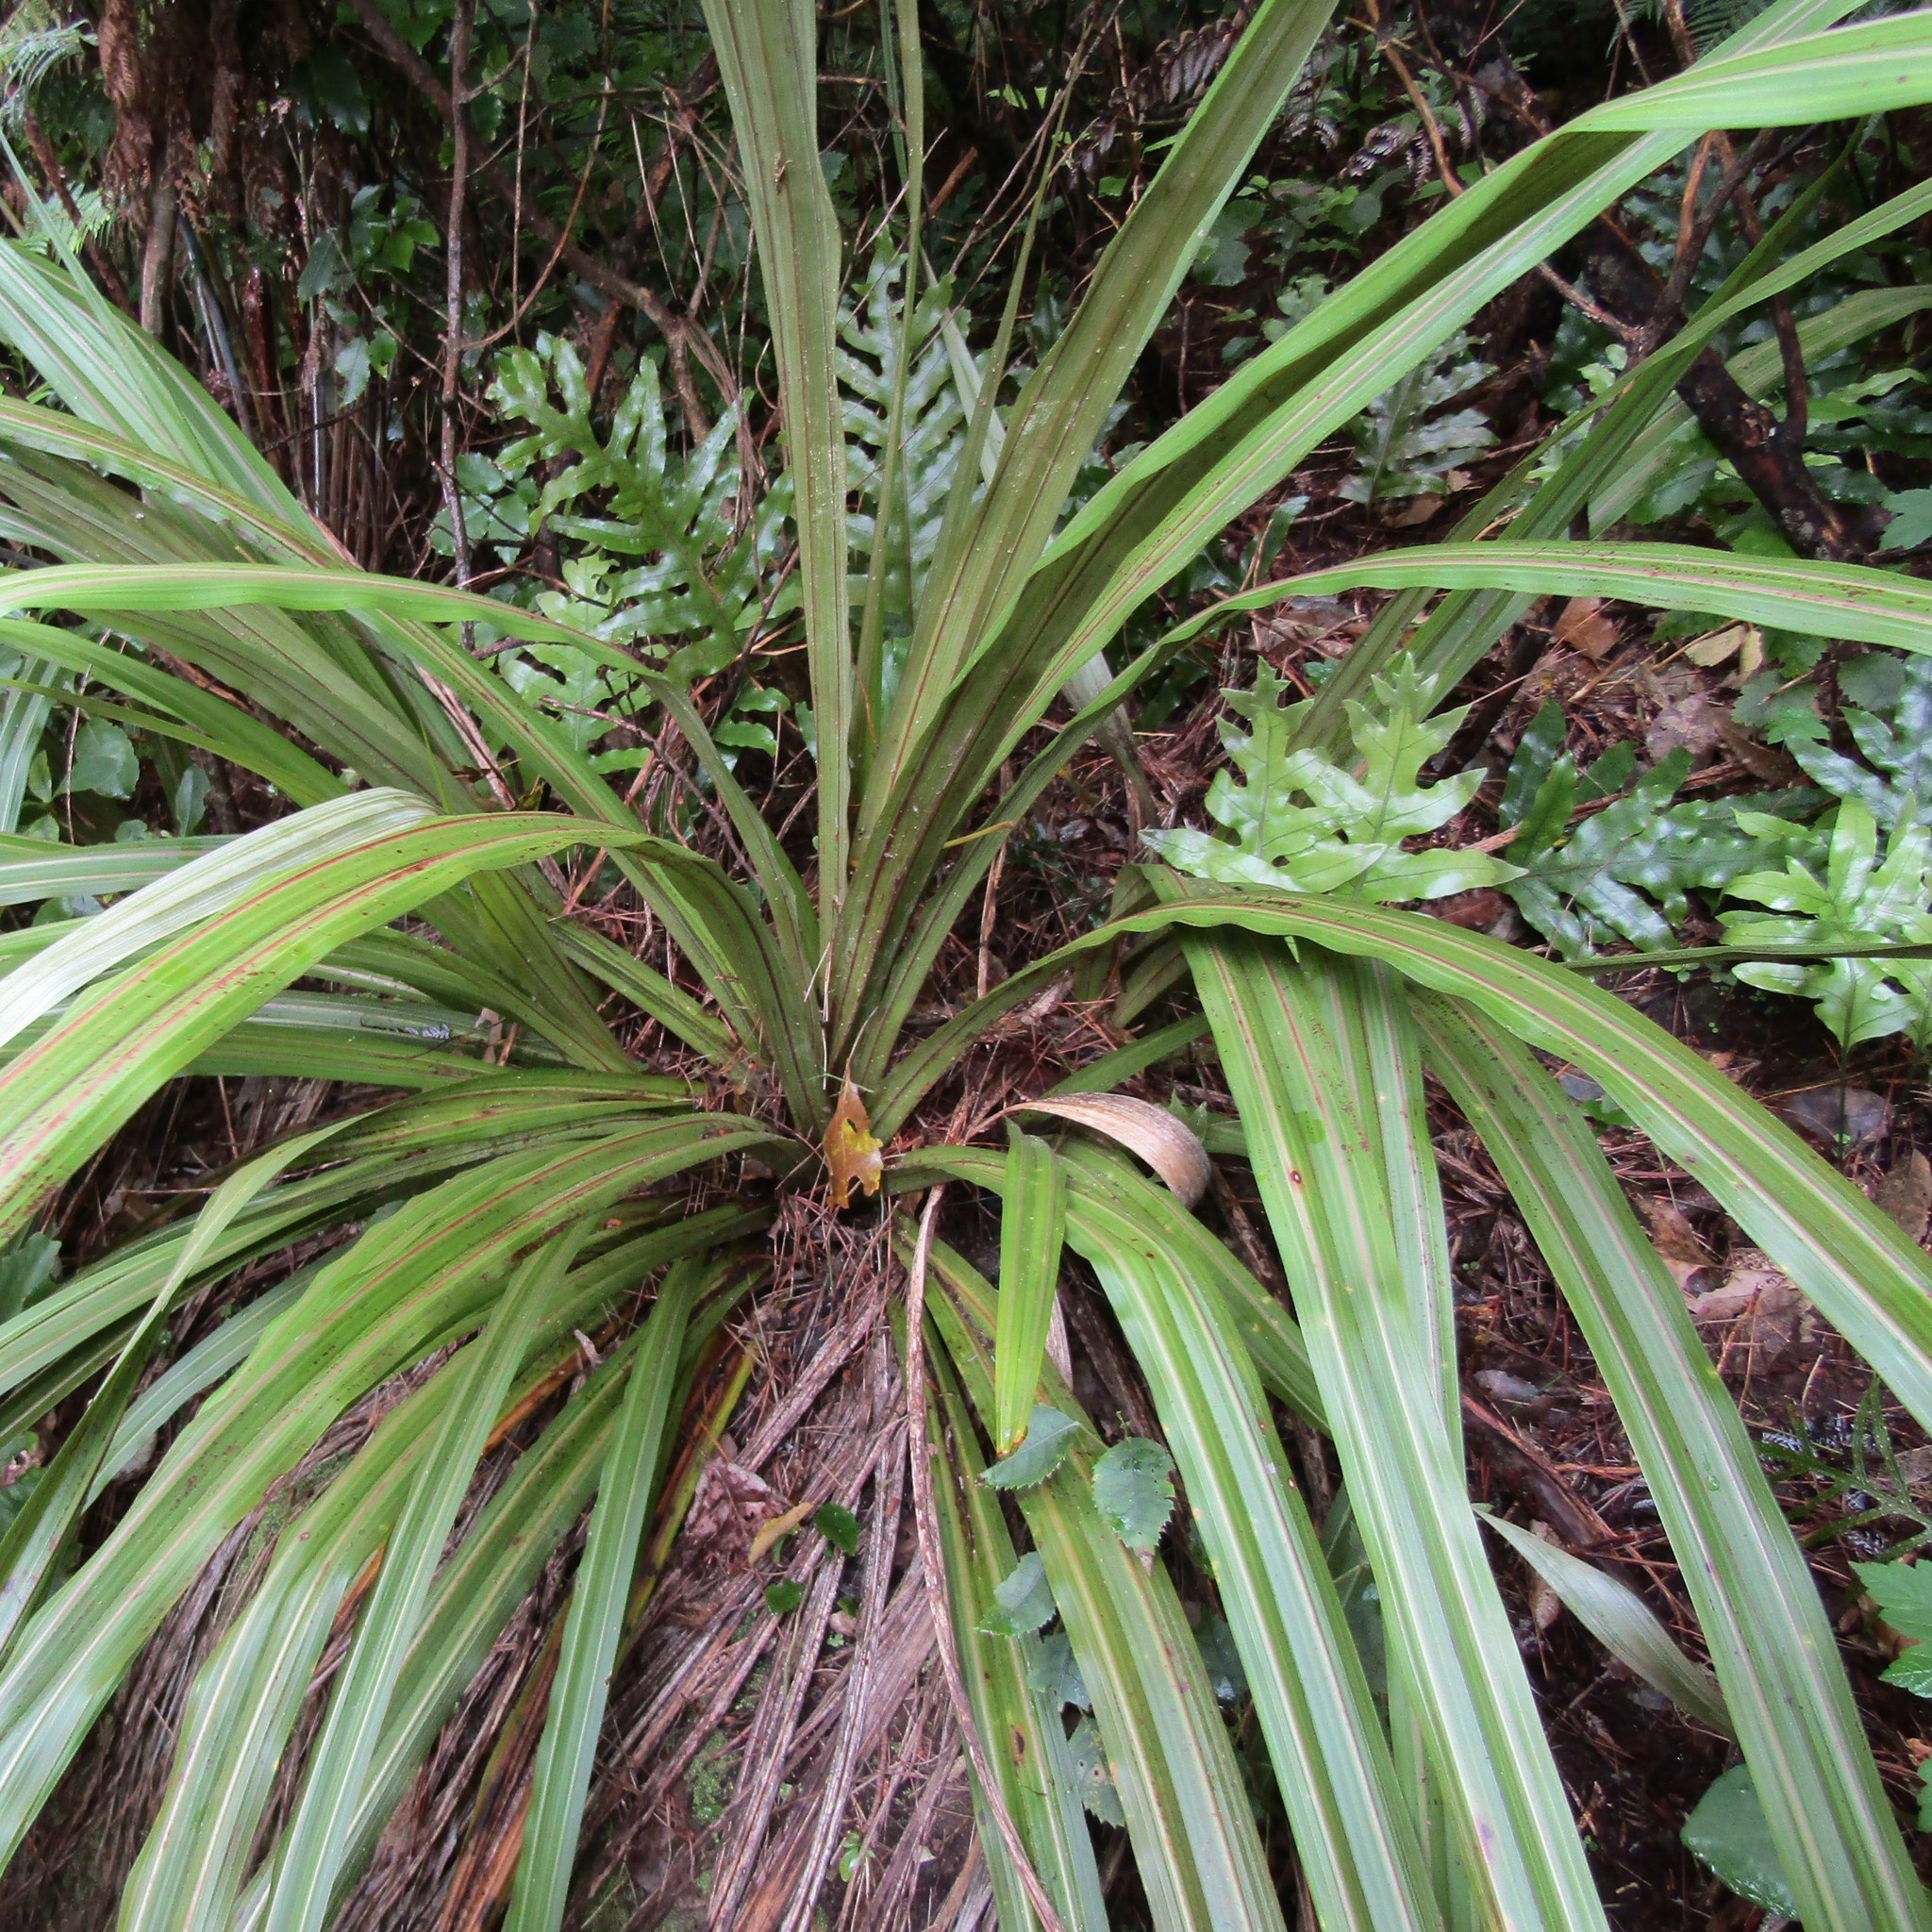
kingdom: Plantae
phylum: Tracheophyta
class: Liliopsida
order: Asparagales
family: Asteliaceae
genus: Astelia
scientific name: Astelia fragrans
